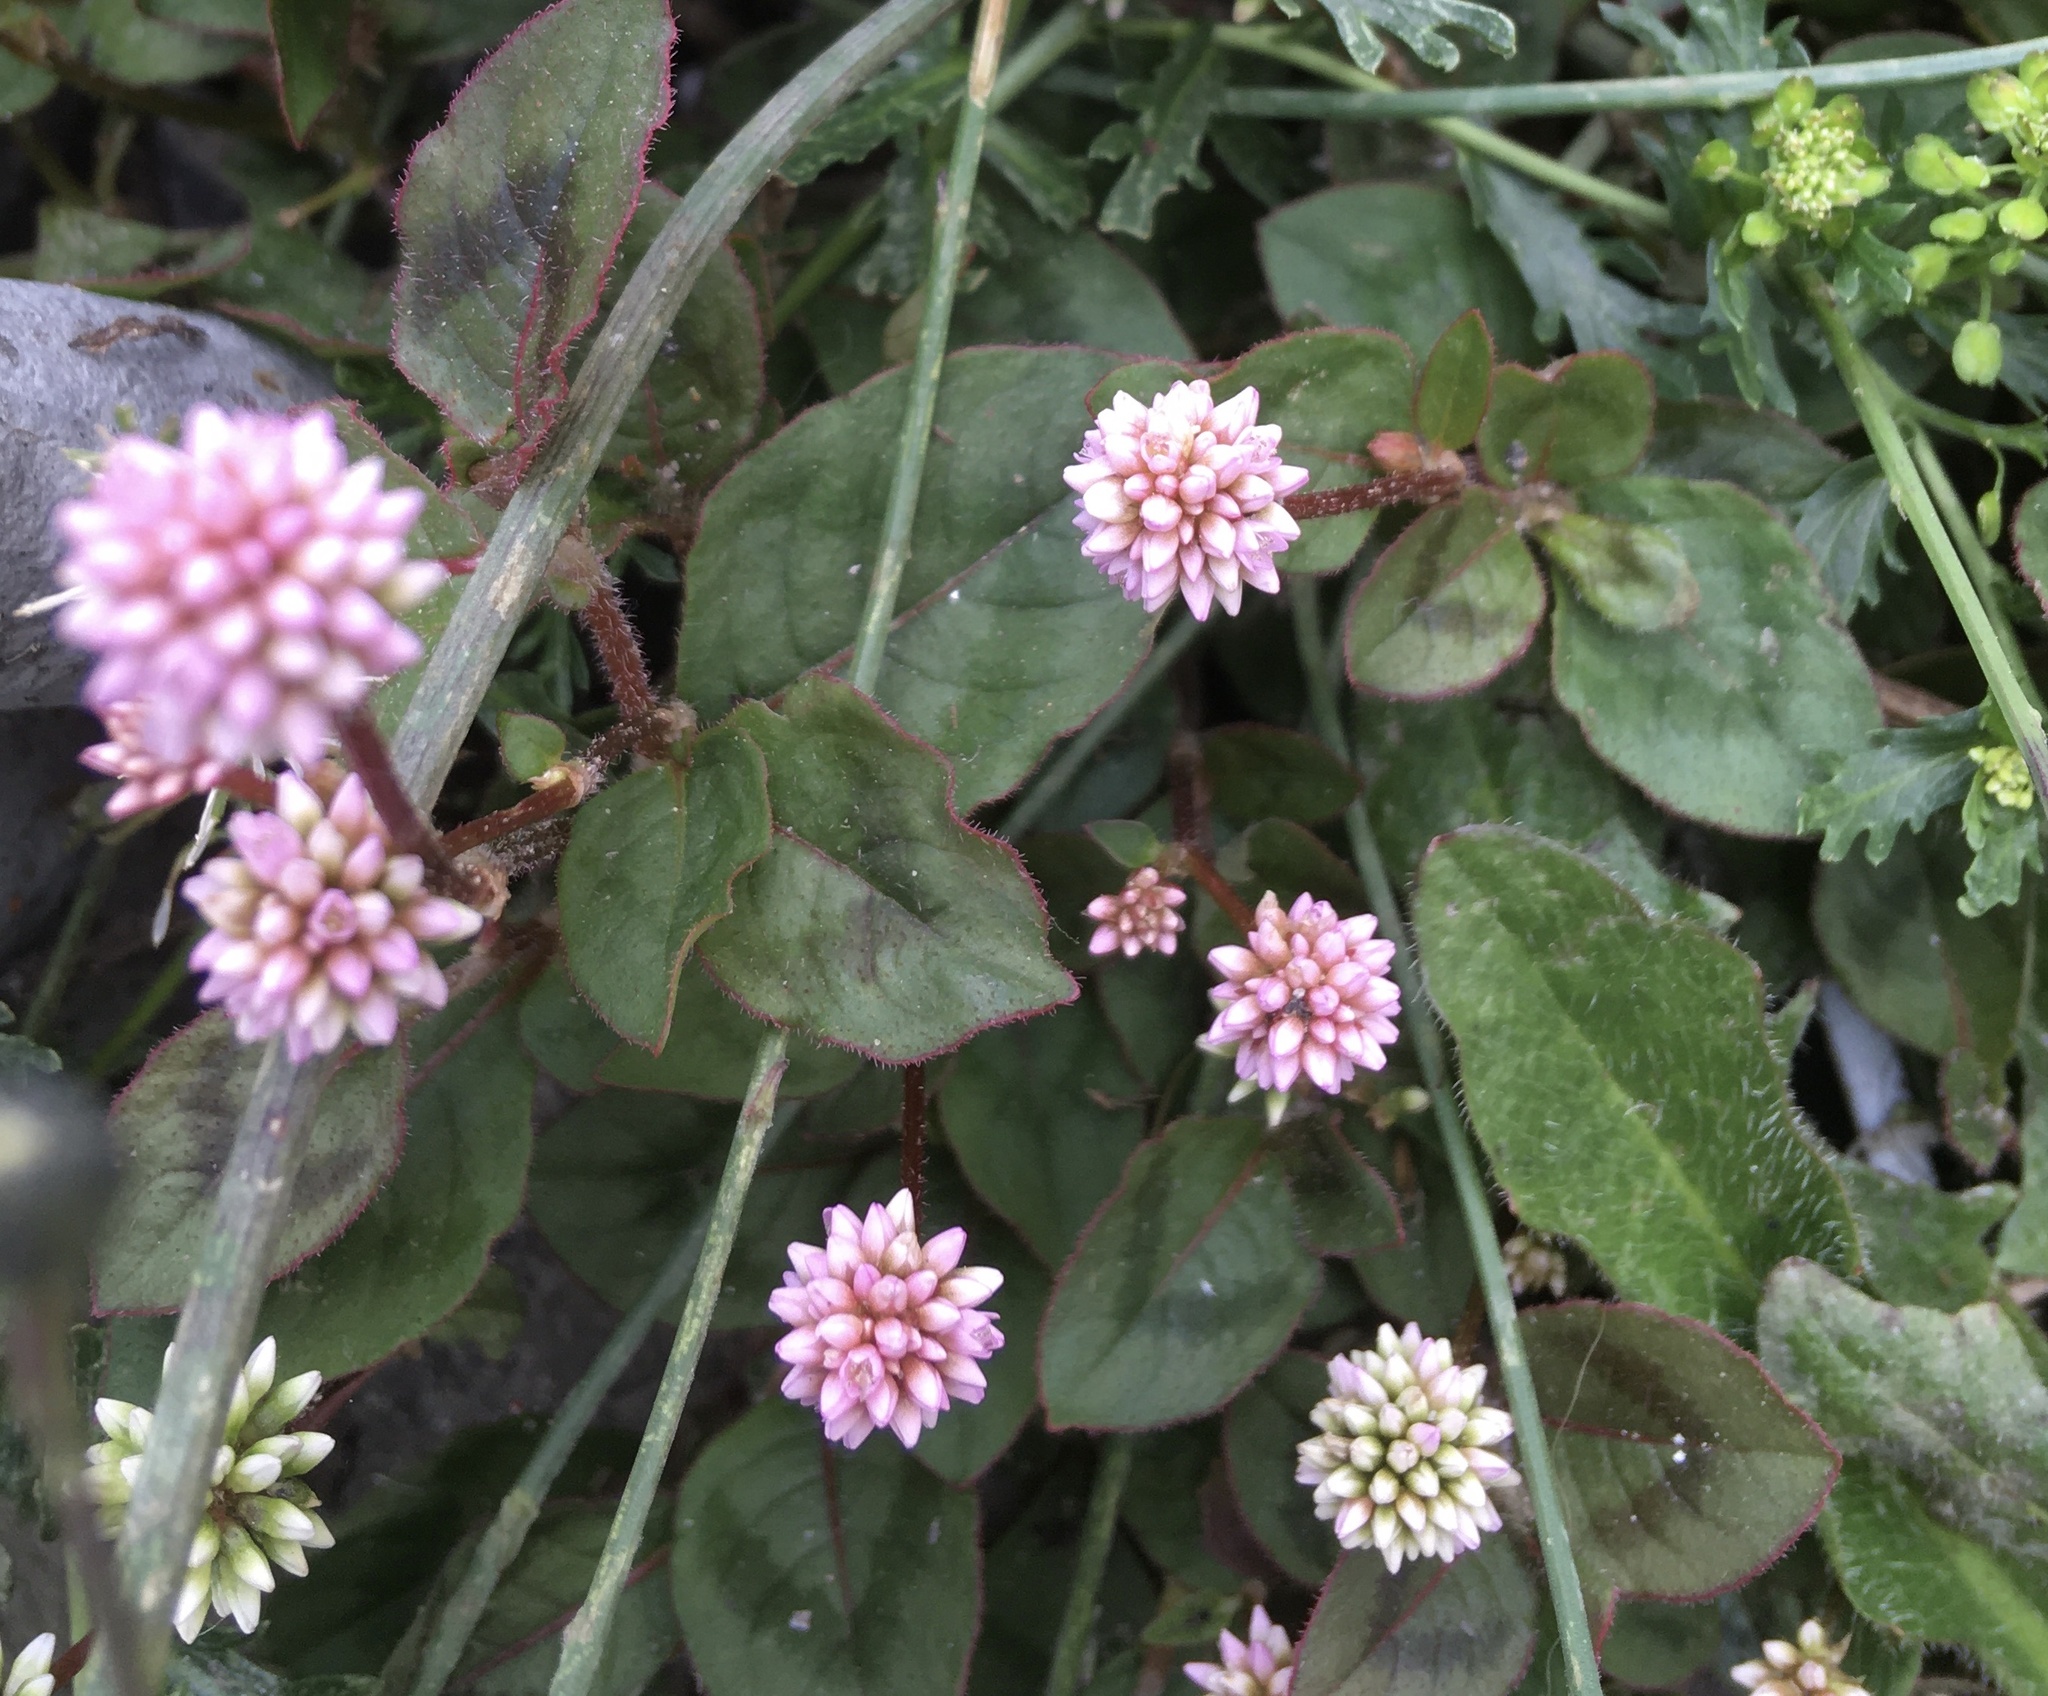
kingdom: Plantae
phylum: Tracheophyta
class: Magnoliopsida
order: Caryophyllales
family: Polygonaceae
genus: Persicaria
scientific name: Persicaria capitata
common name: Pinkhead smartweed
